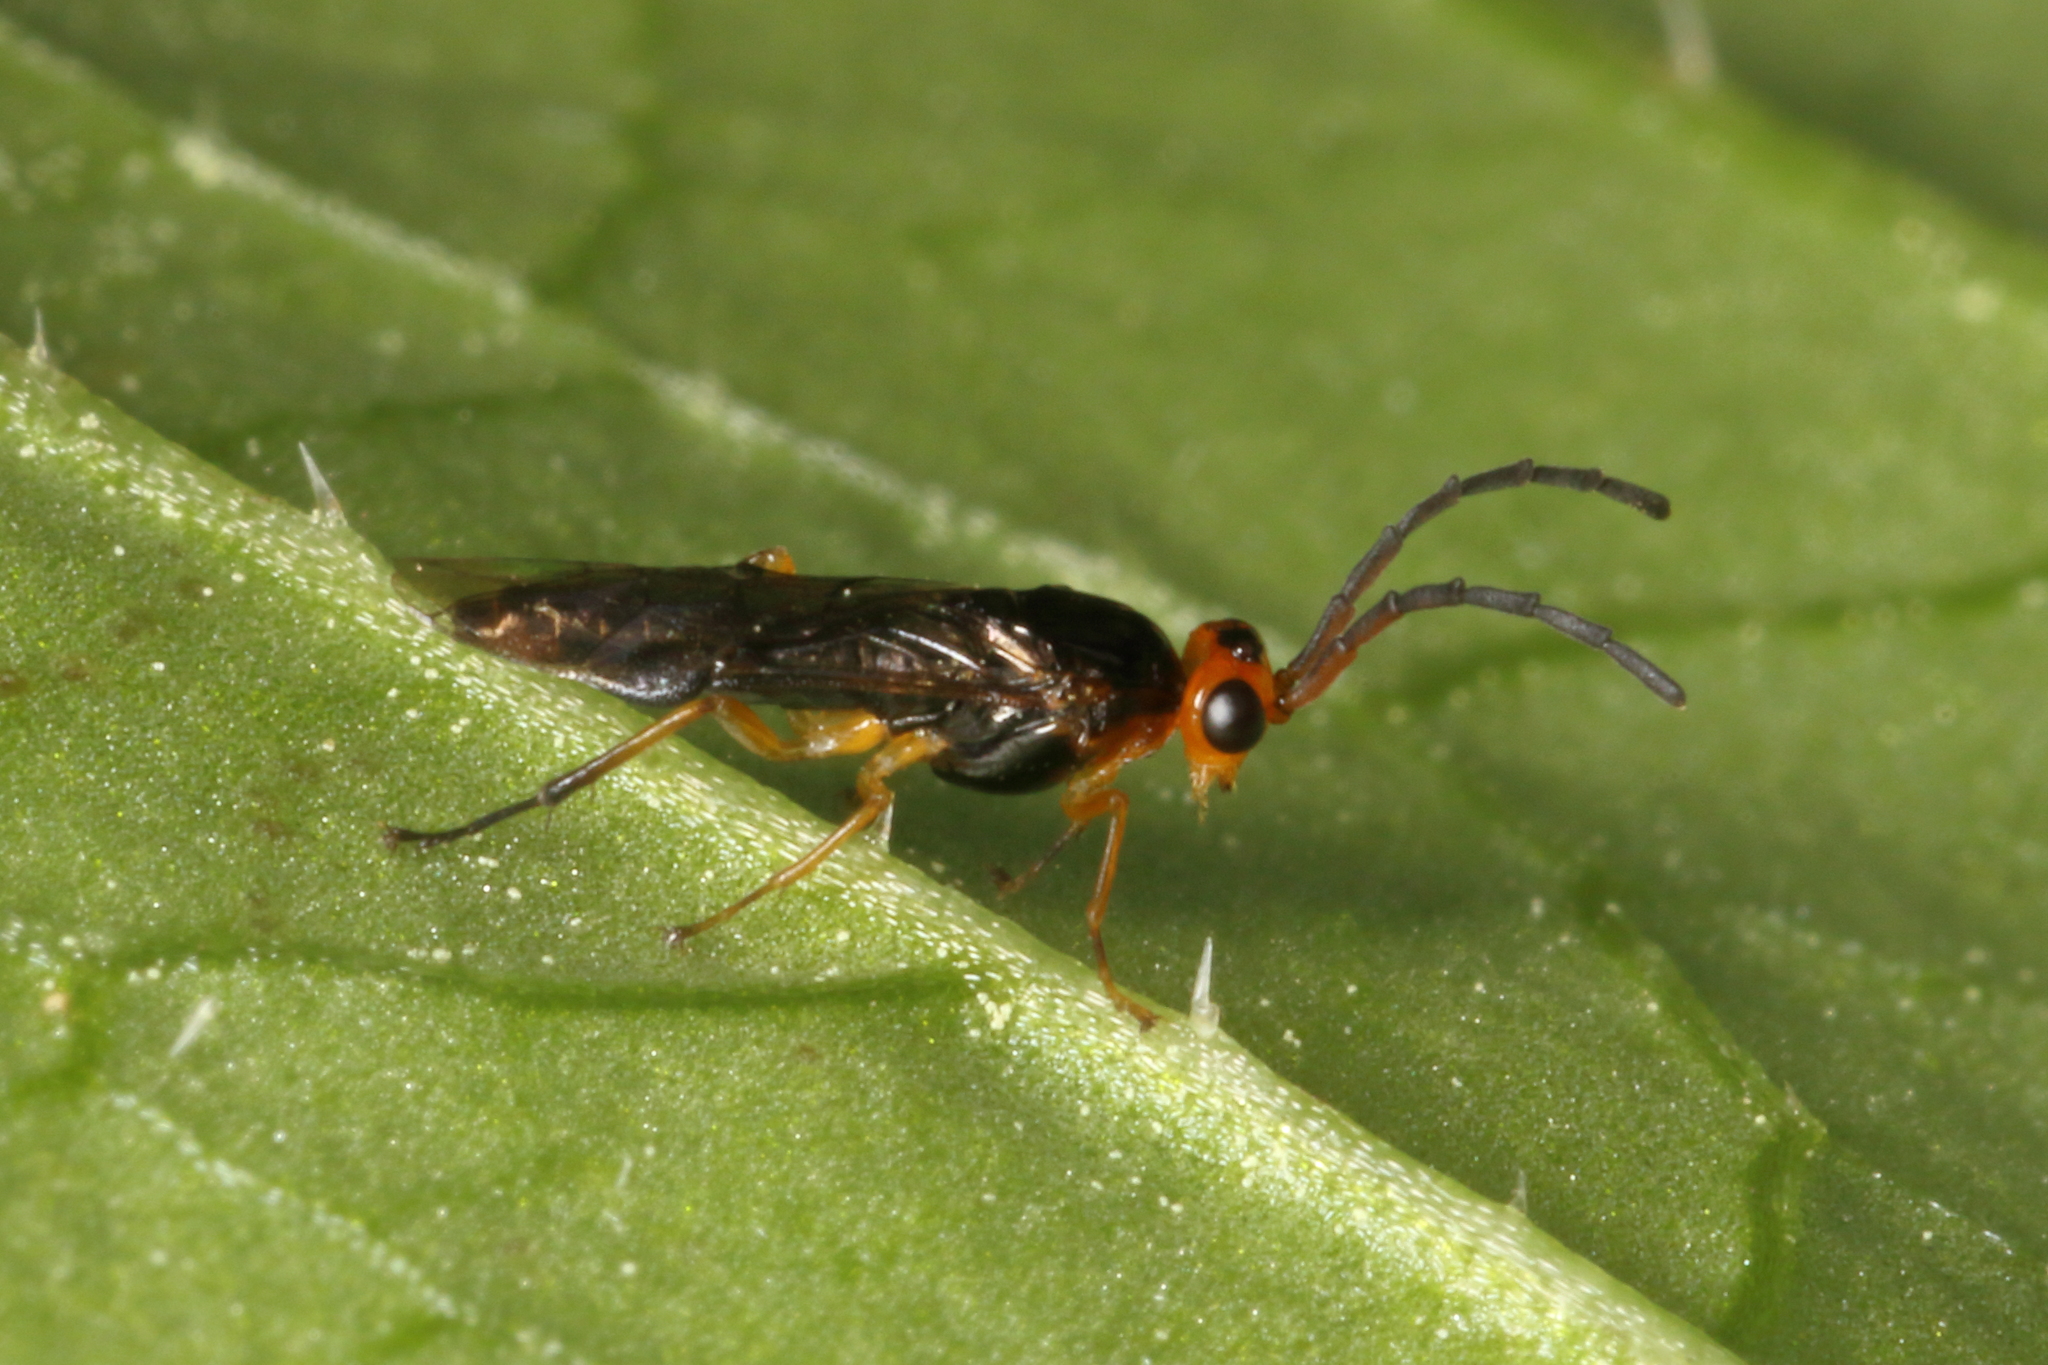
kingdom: Animalia
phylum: Arthropoda
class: Insecta
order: Hymenoptera
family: Pergidae
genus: Phylacteophaga
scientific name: Phylacteophaga froggatti
